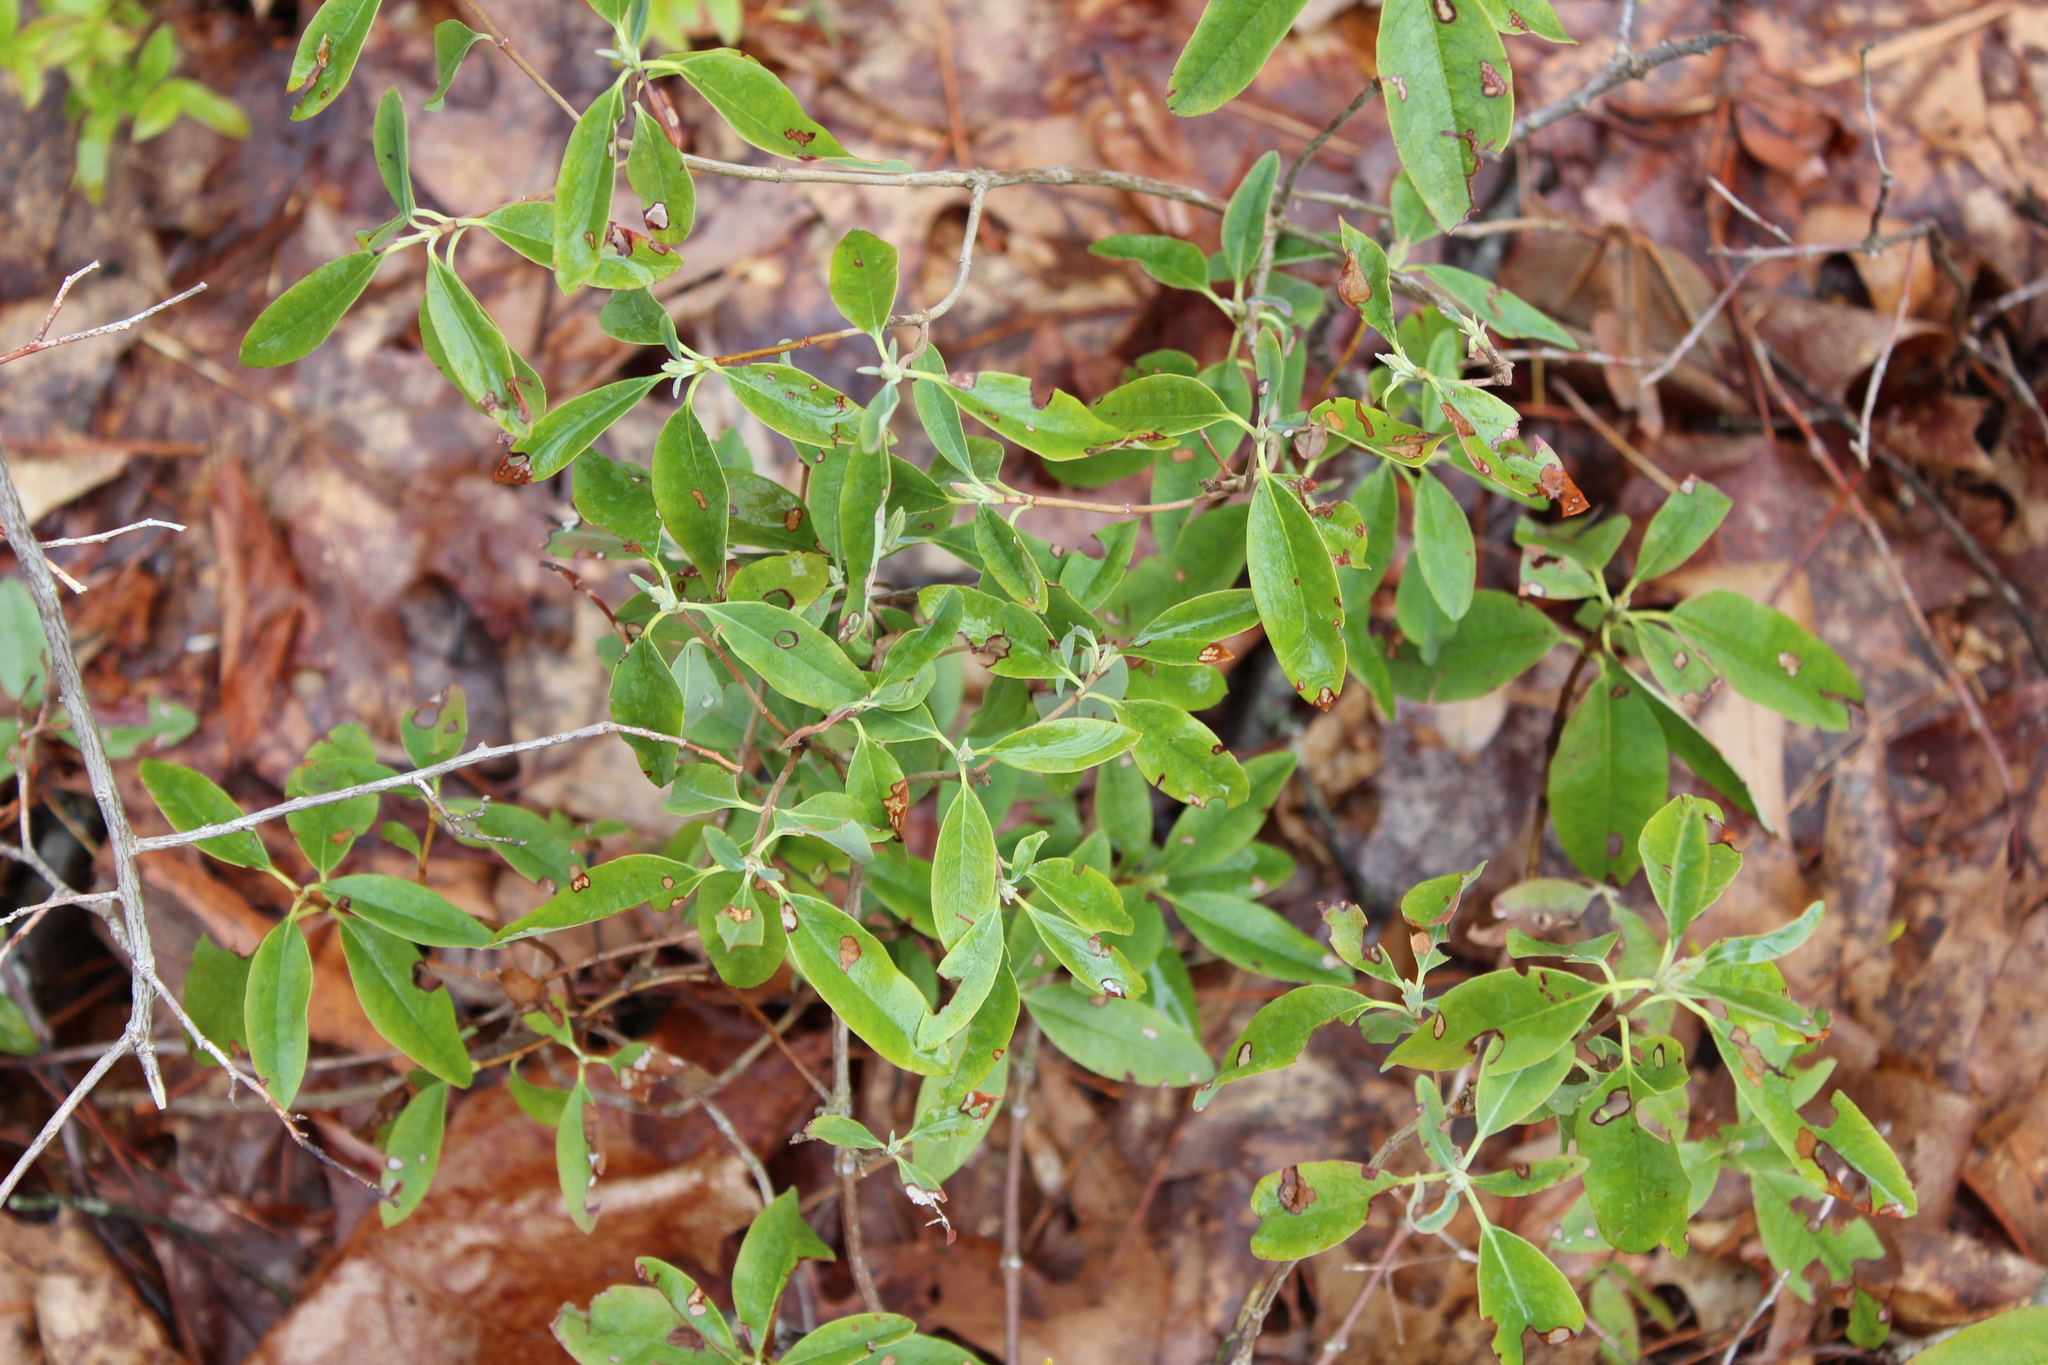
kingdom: Plantae
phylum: Tracheophyta
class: Magnoliopsida
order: Ericales
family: Ericaceae
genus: Kalmia
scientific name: Kalmia angustifolia
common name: Sheep-laurel
